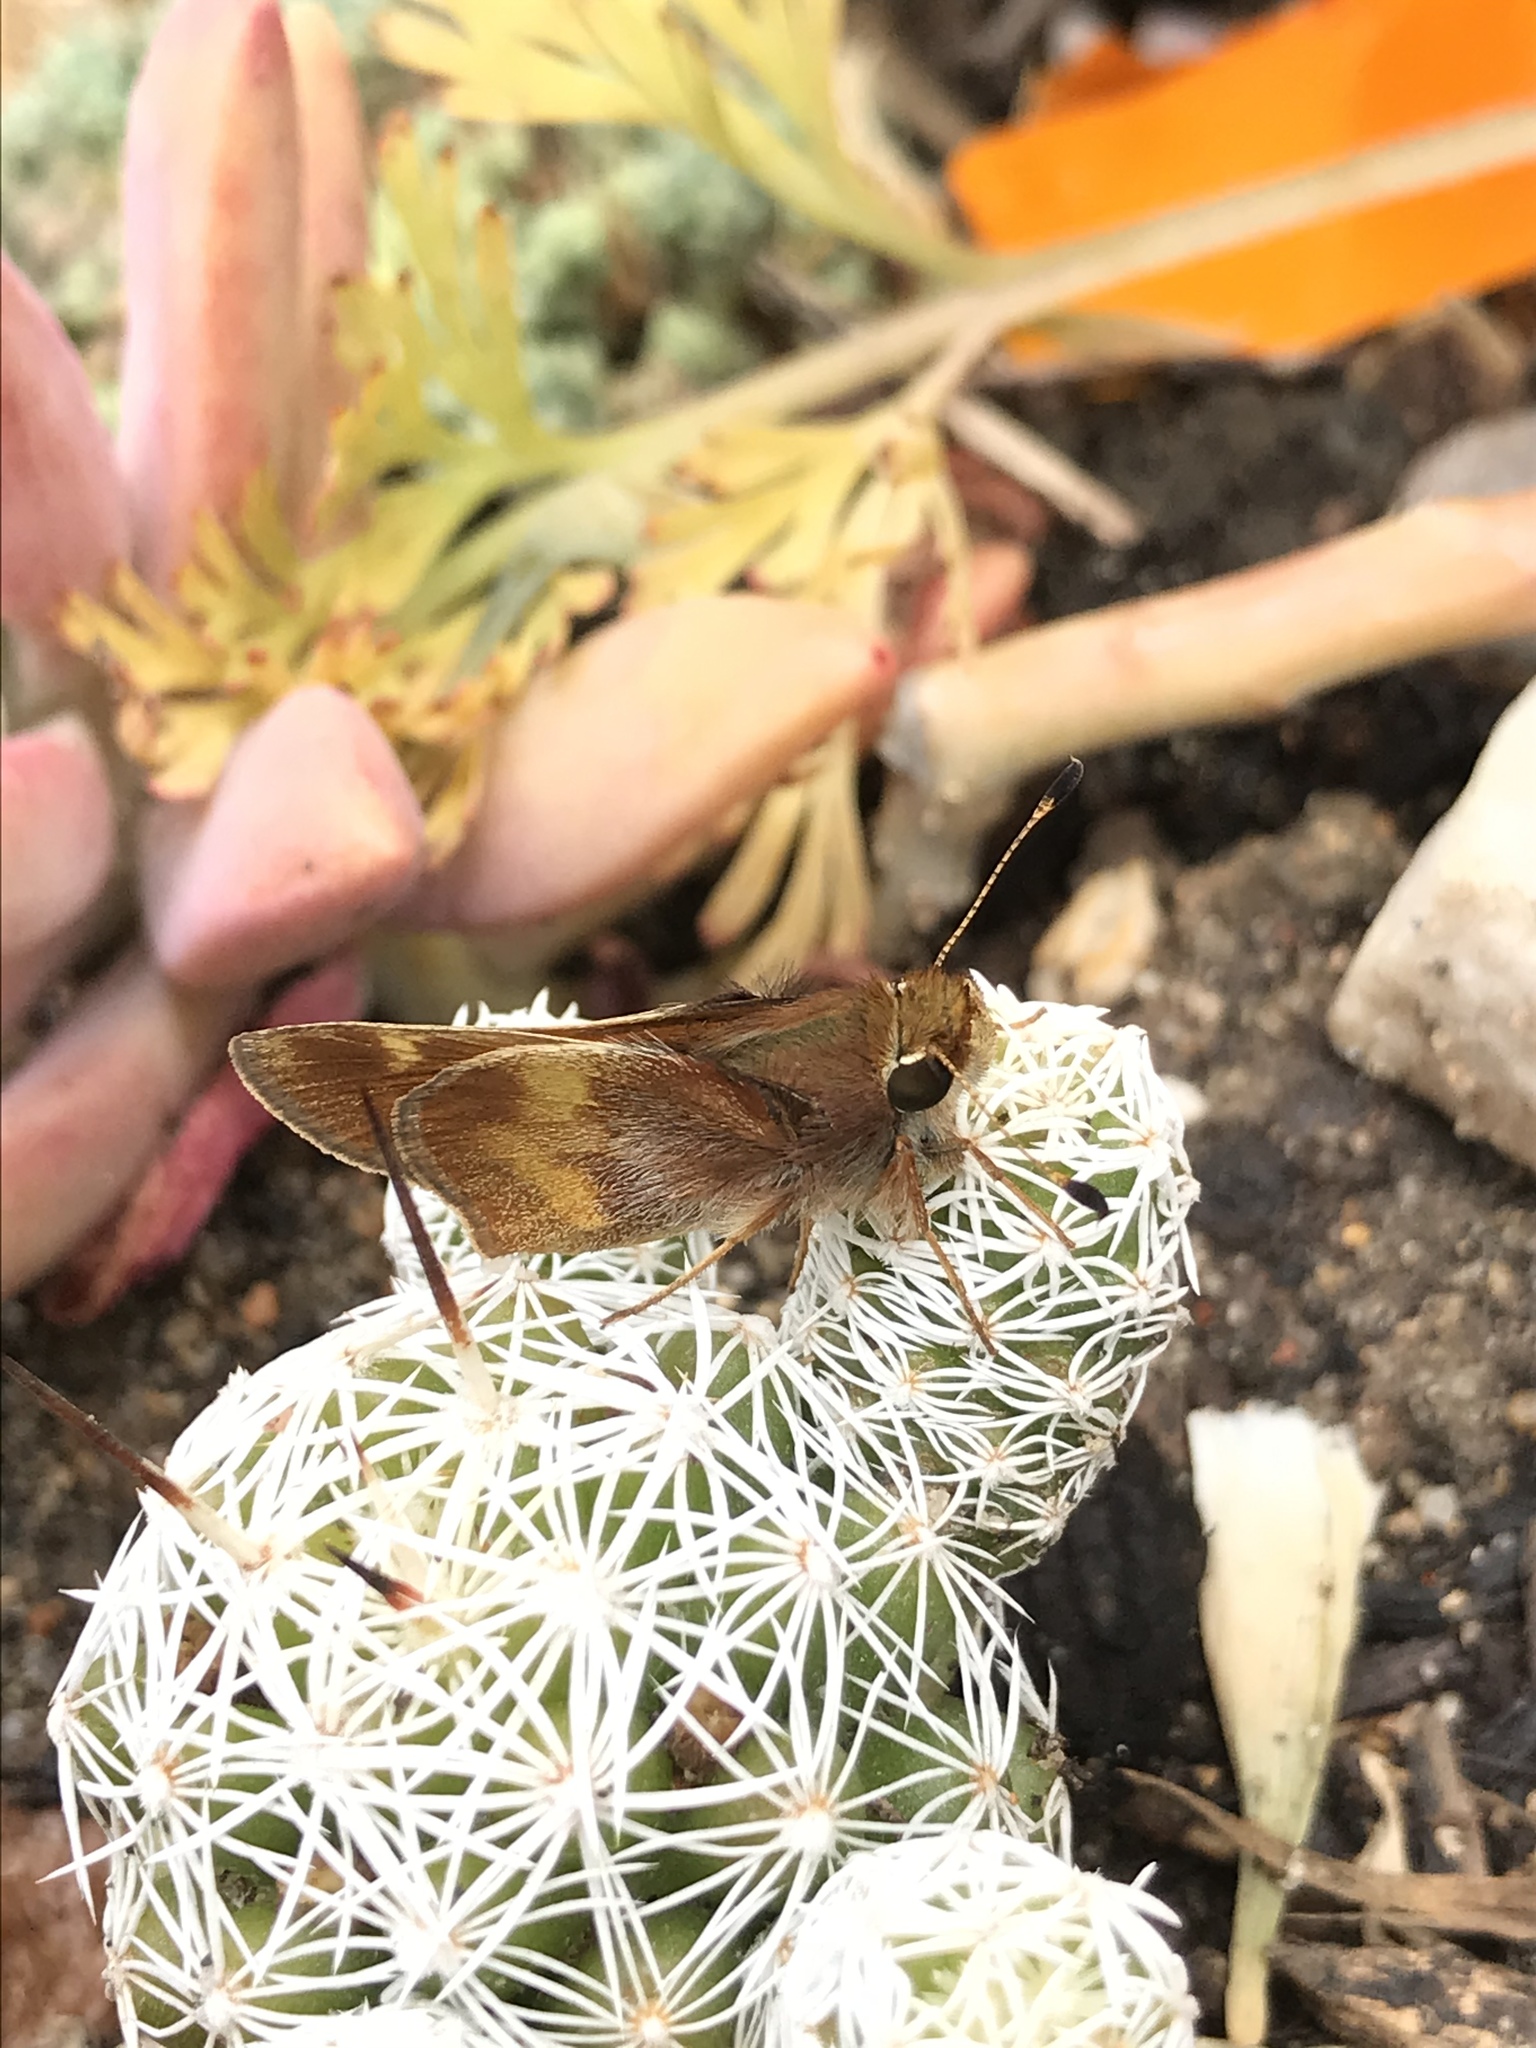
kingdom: Animalia
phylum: Arthropoda
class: Insecta
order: Lepidoptera
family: Hesperiidae
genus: Lon
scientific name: Lon melane
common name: Umber skipper
